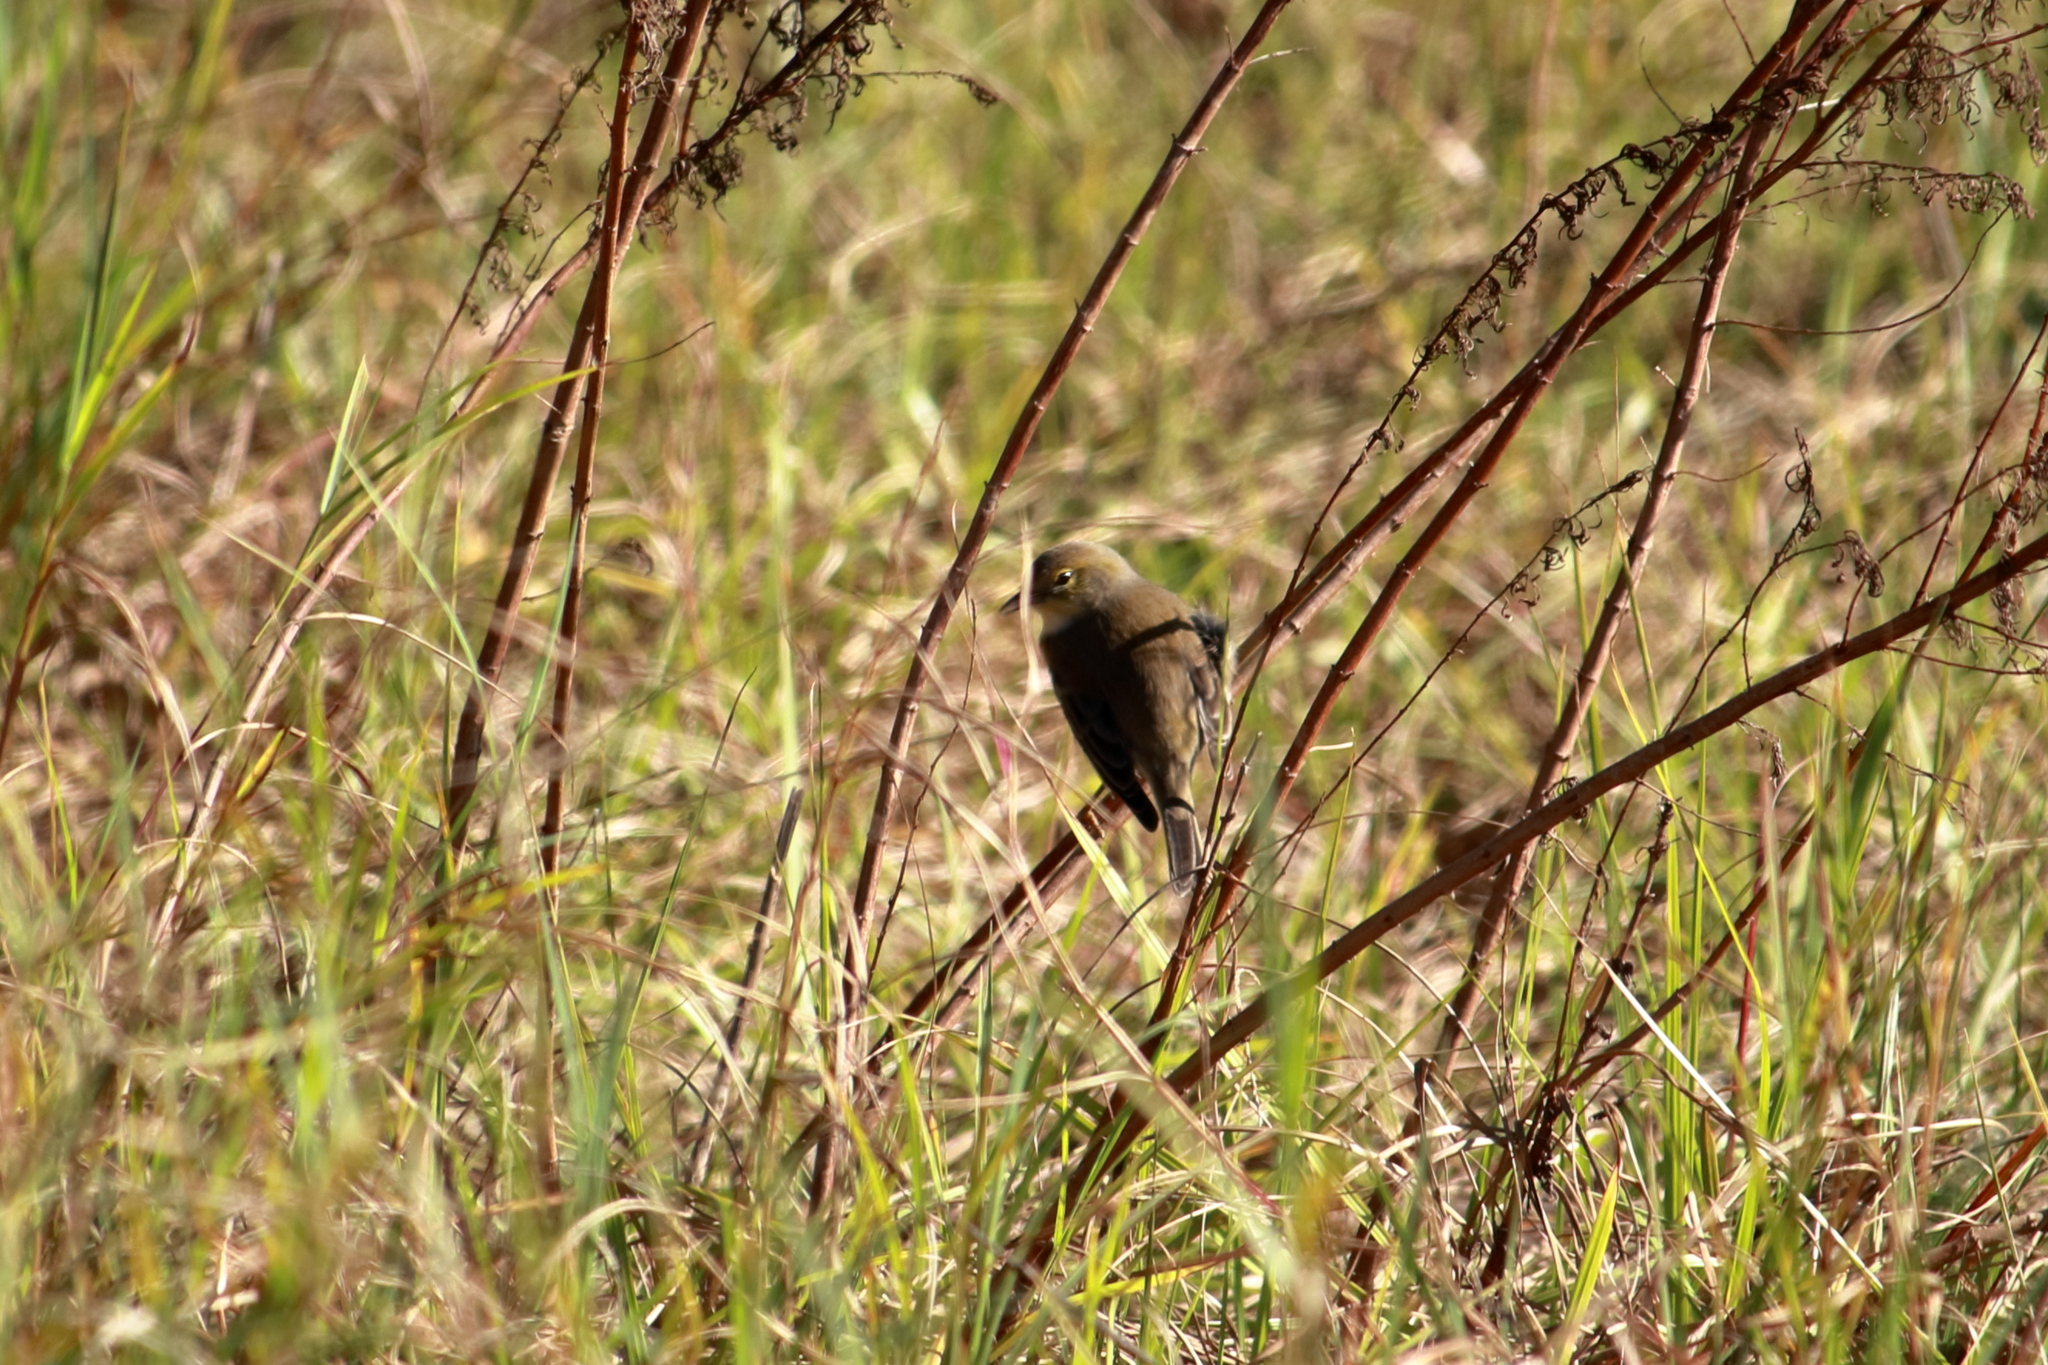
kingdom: Animalia
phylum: Chordata
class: Aves
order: Passeriformes
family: Parulidae
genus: Setophaga
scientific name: Setophaga pinus
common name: Pine warbler
